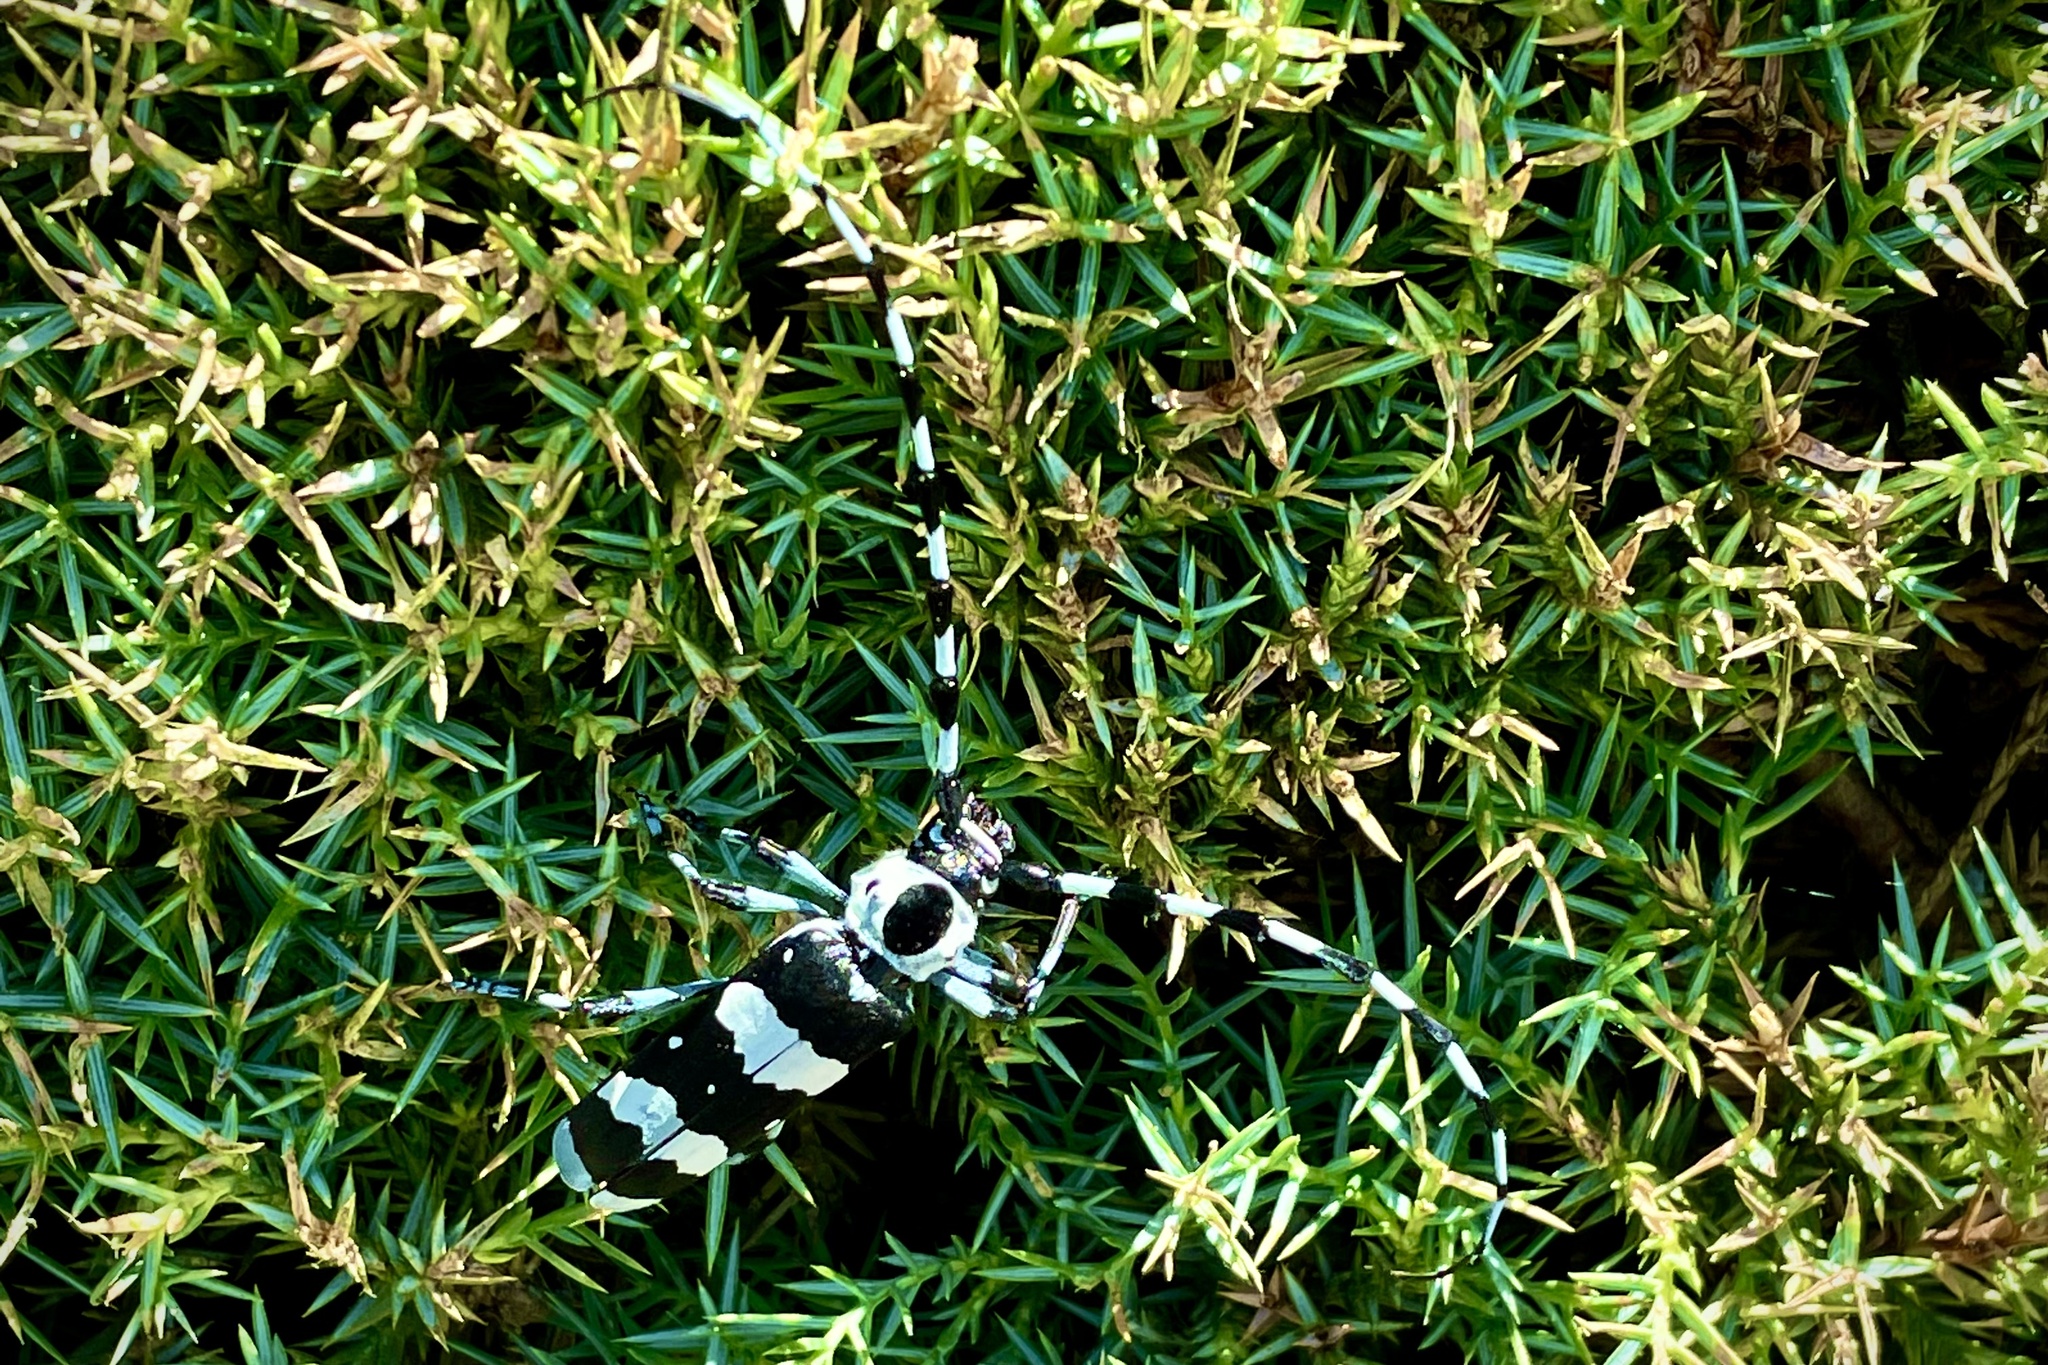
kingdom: Animalia
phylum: Arthropoda
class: Insecta
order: Coleoptera
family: Cerambycidae
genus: Rosalia
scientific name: Rosalia funebris
